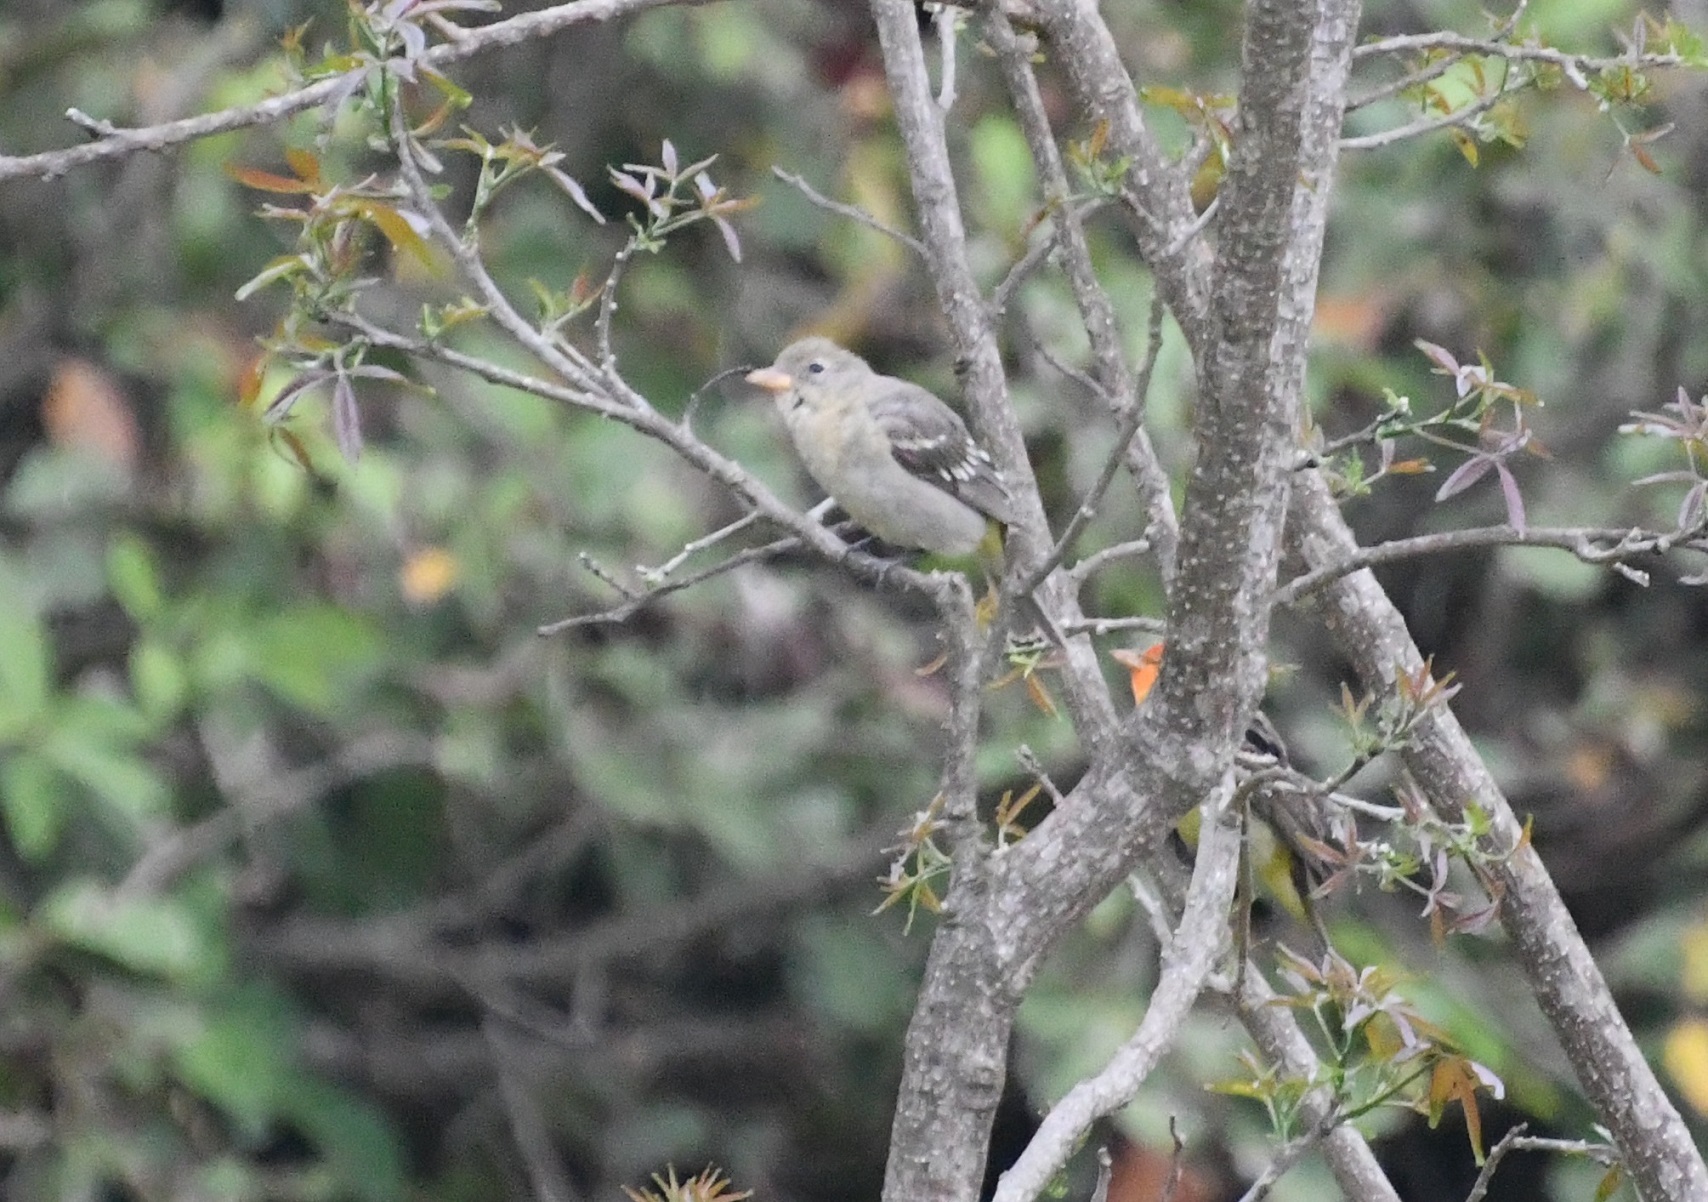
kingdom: Animalia
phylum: Chordata
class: Aves
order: Passeriformes
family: Cardinalidae
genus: Piranga
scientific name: Piranga ludoviciana
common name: Western tanager
